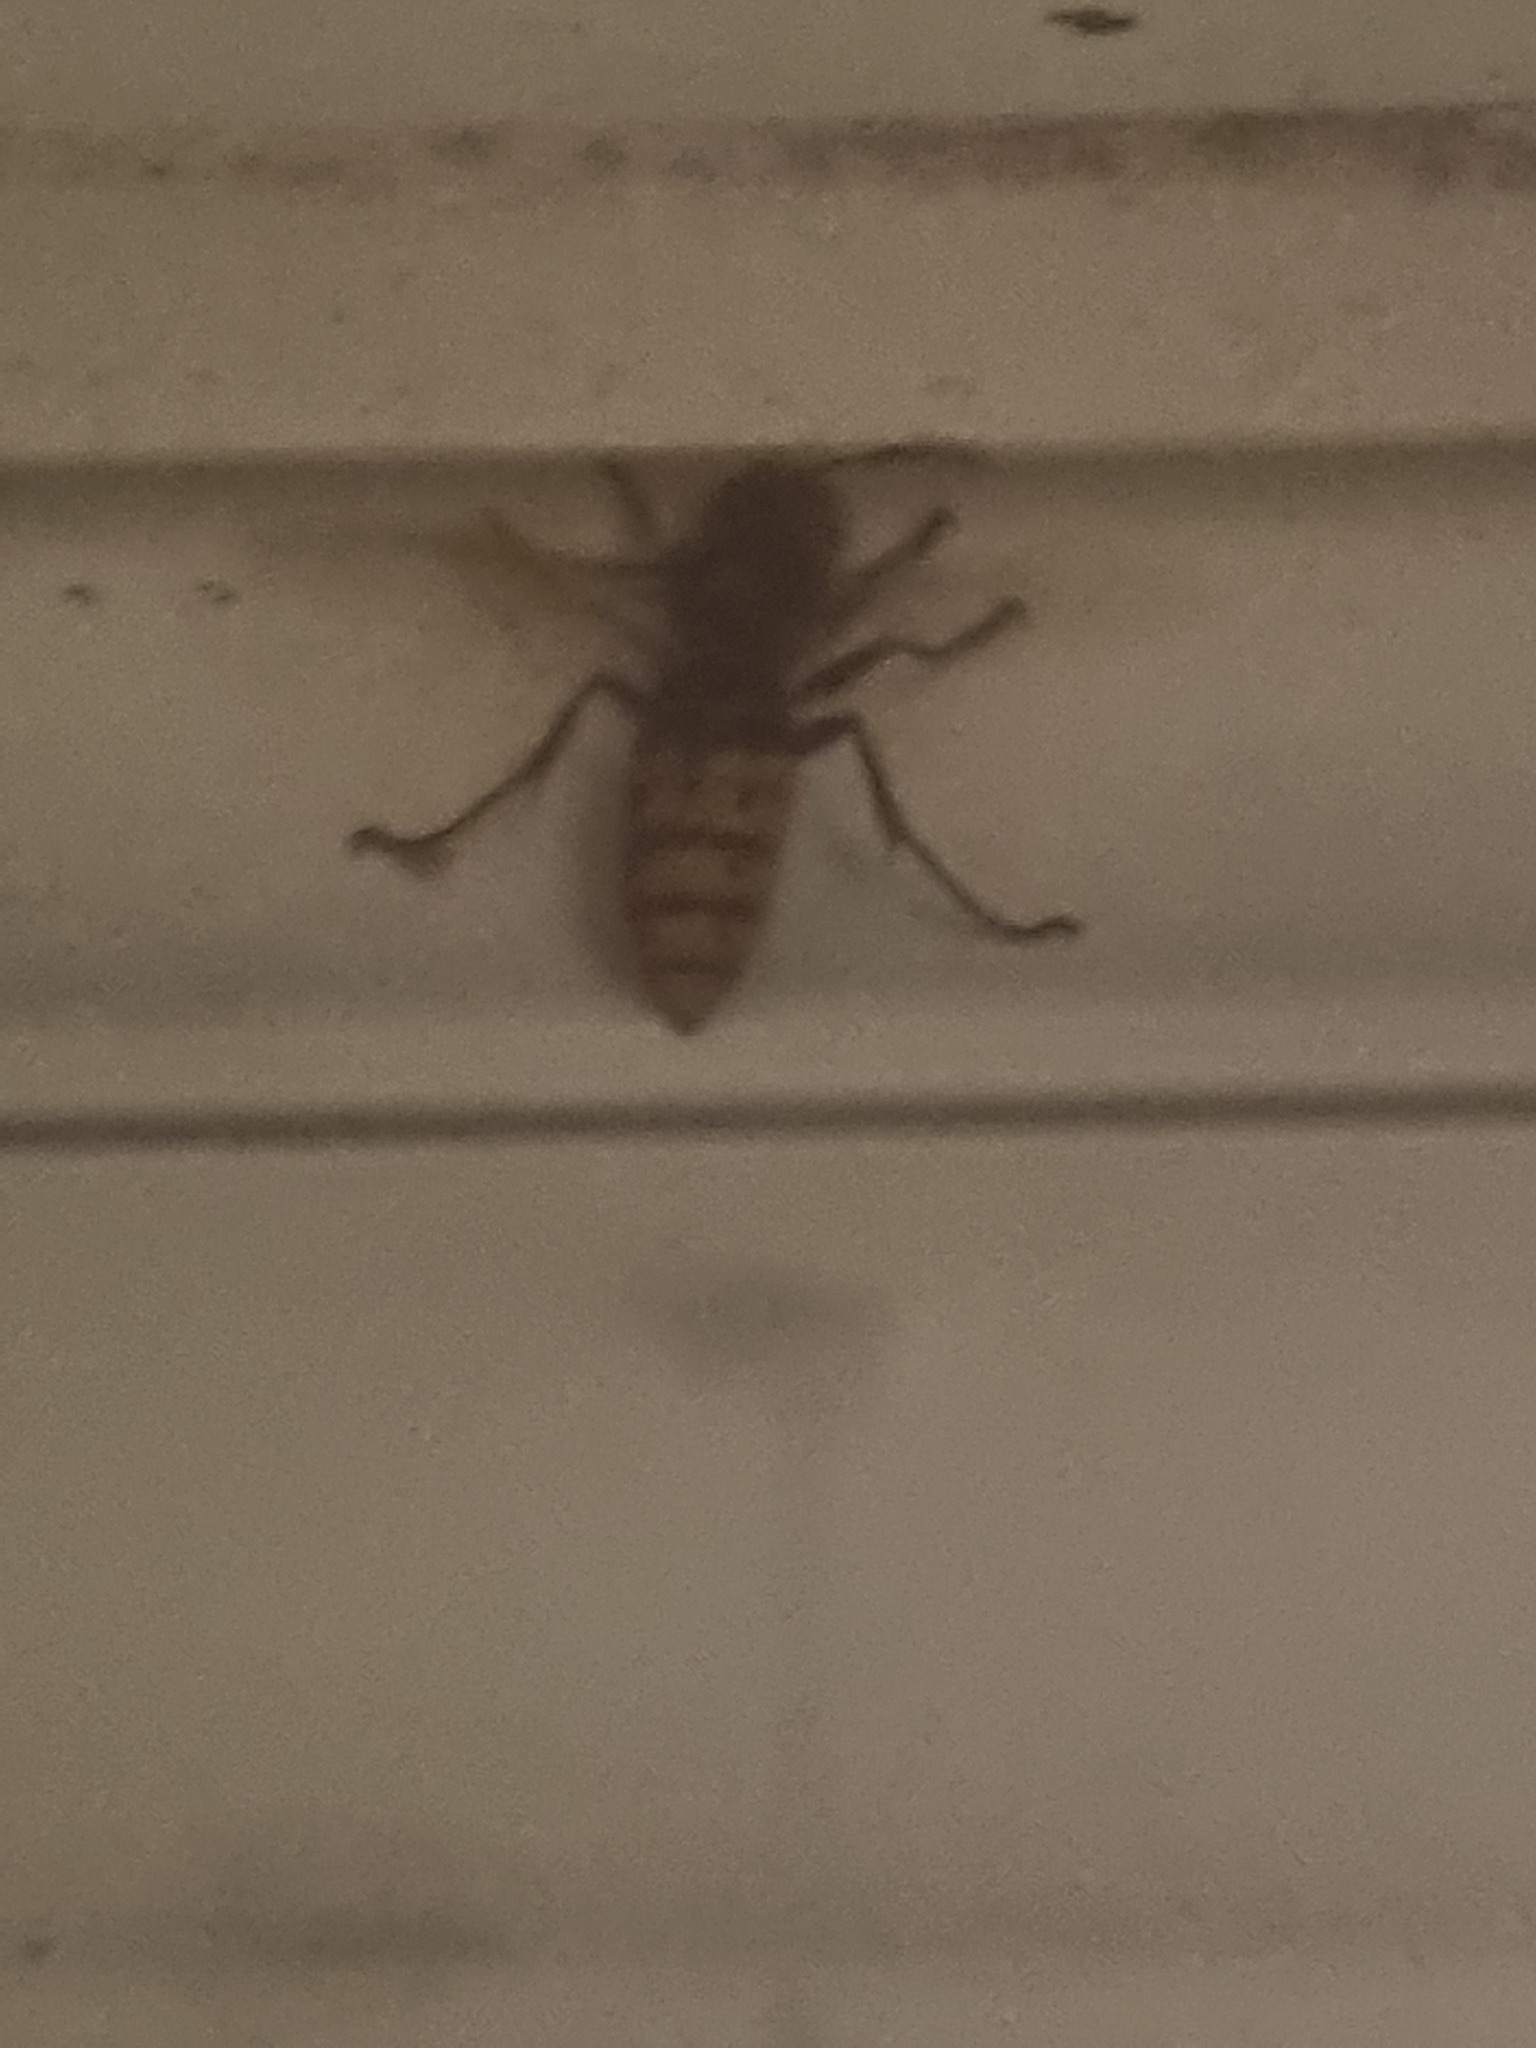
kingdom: Animalia
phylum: Arthropoda
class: Insecta
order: Hymenoptera
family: Vespidae
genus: Vespa
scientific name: Vespa crabro
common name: Hornet
